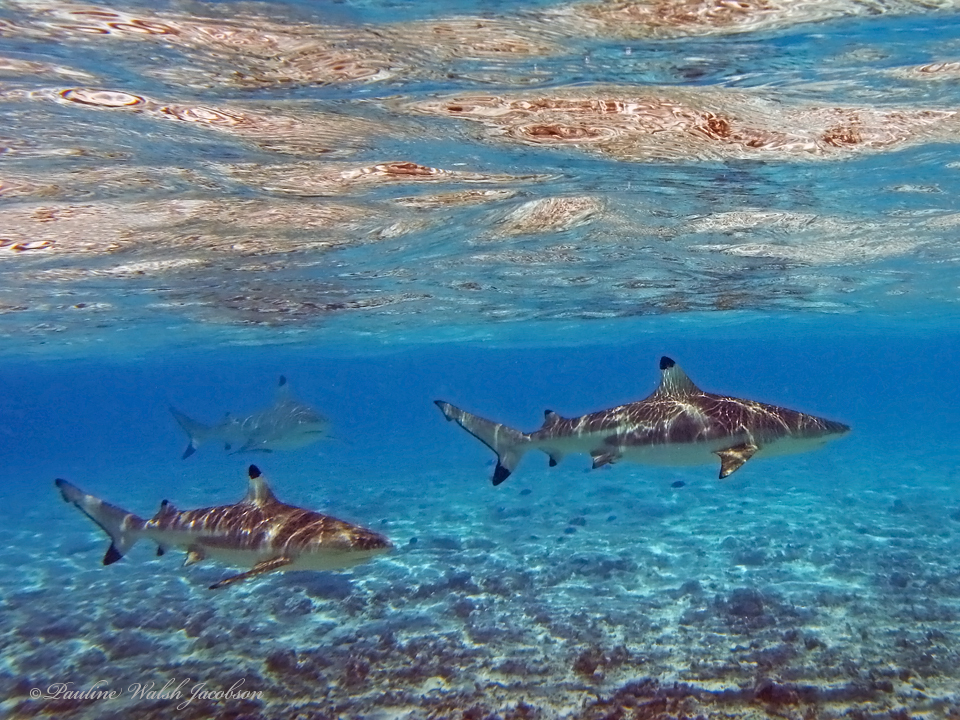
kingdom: Animalia
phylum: Chordata
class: Elasmobranchii
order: Carcharhiniformes
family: Carcharhinidae
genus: Carcharhinus
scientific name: Carcharhinus melanopterus
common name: Blacktip reef shark
